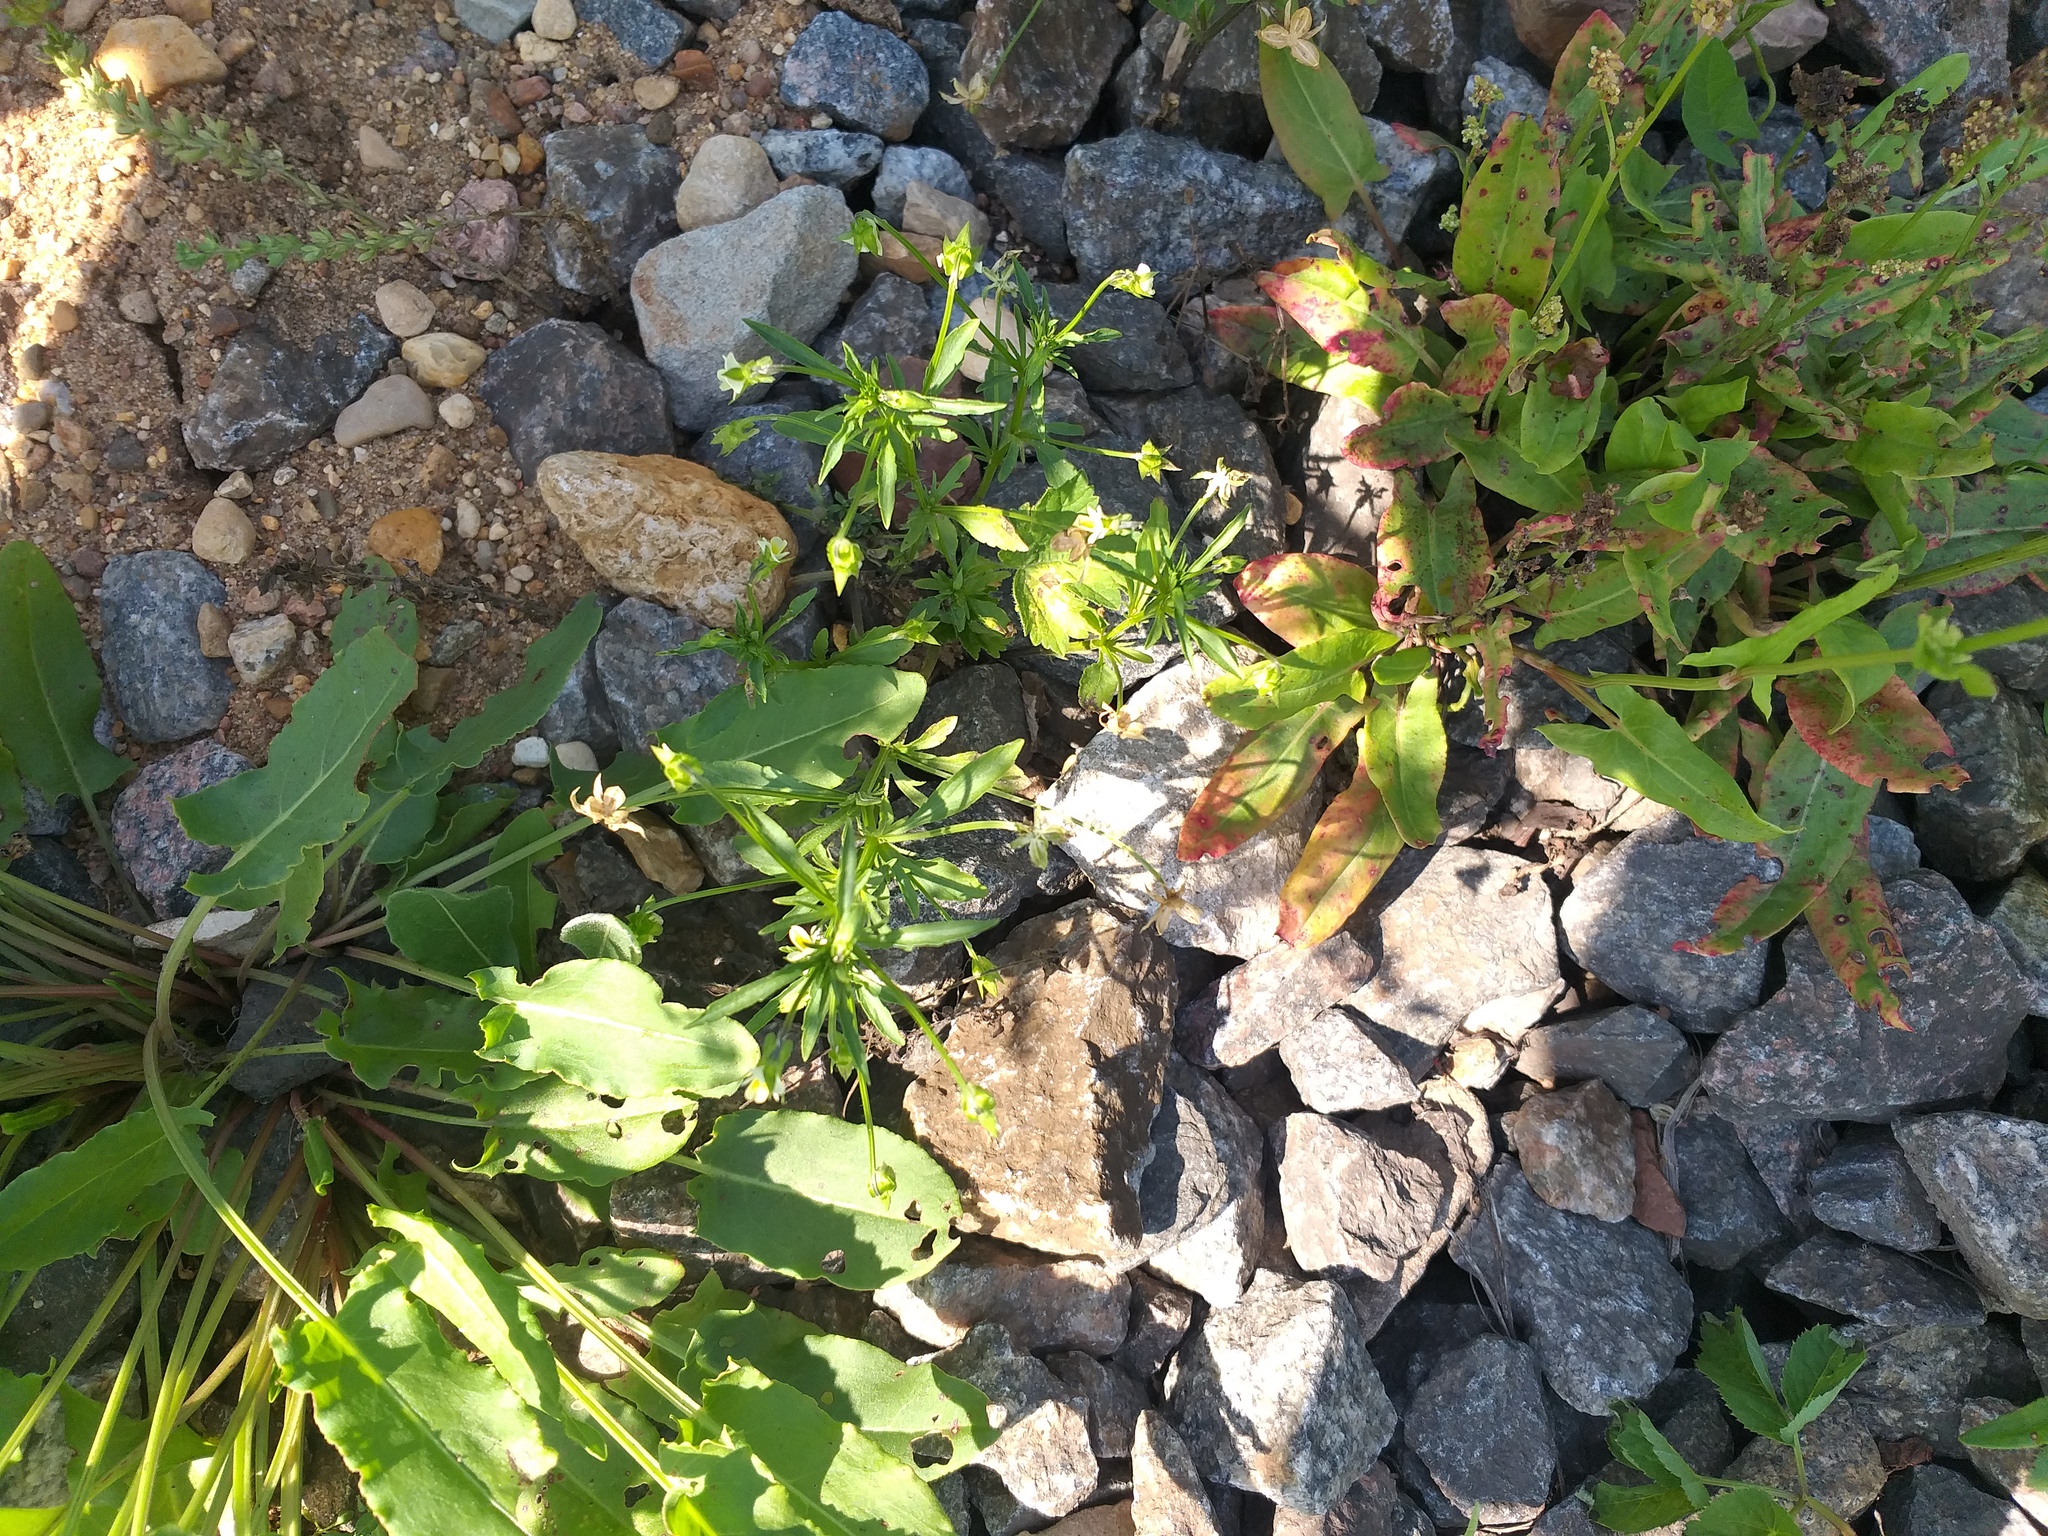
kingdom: Plantae
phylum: Tracheophyta
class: Magnoliopsida
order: Malpighiales
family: Violaceae
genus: Viola
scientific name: Viola arvensis
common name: Field pansy
